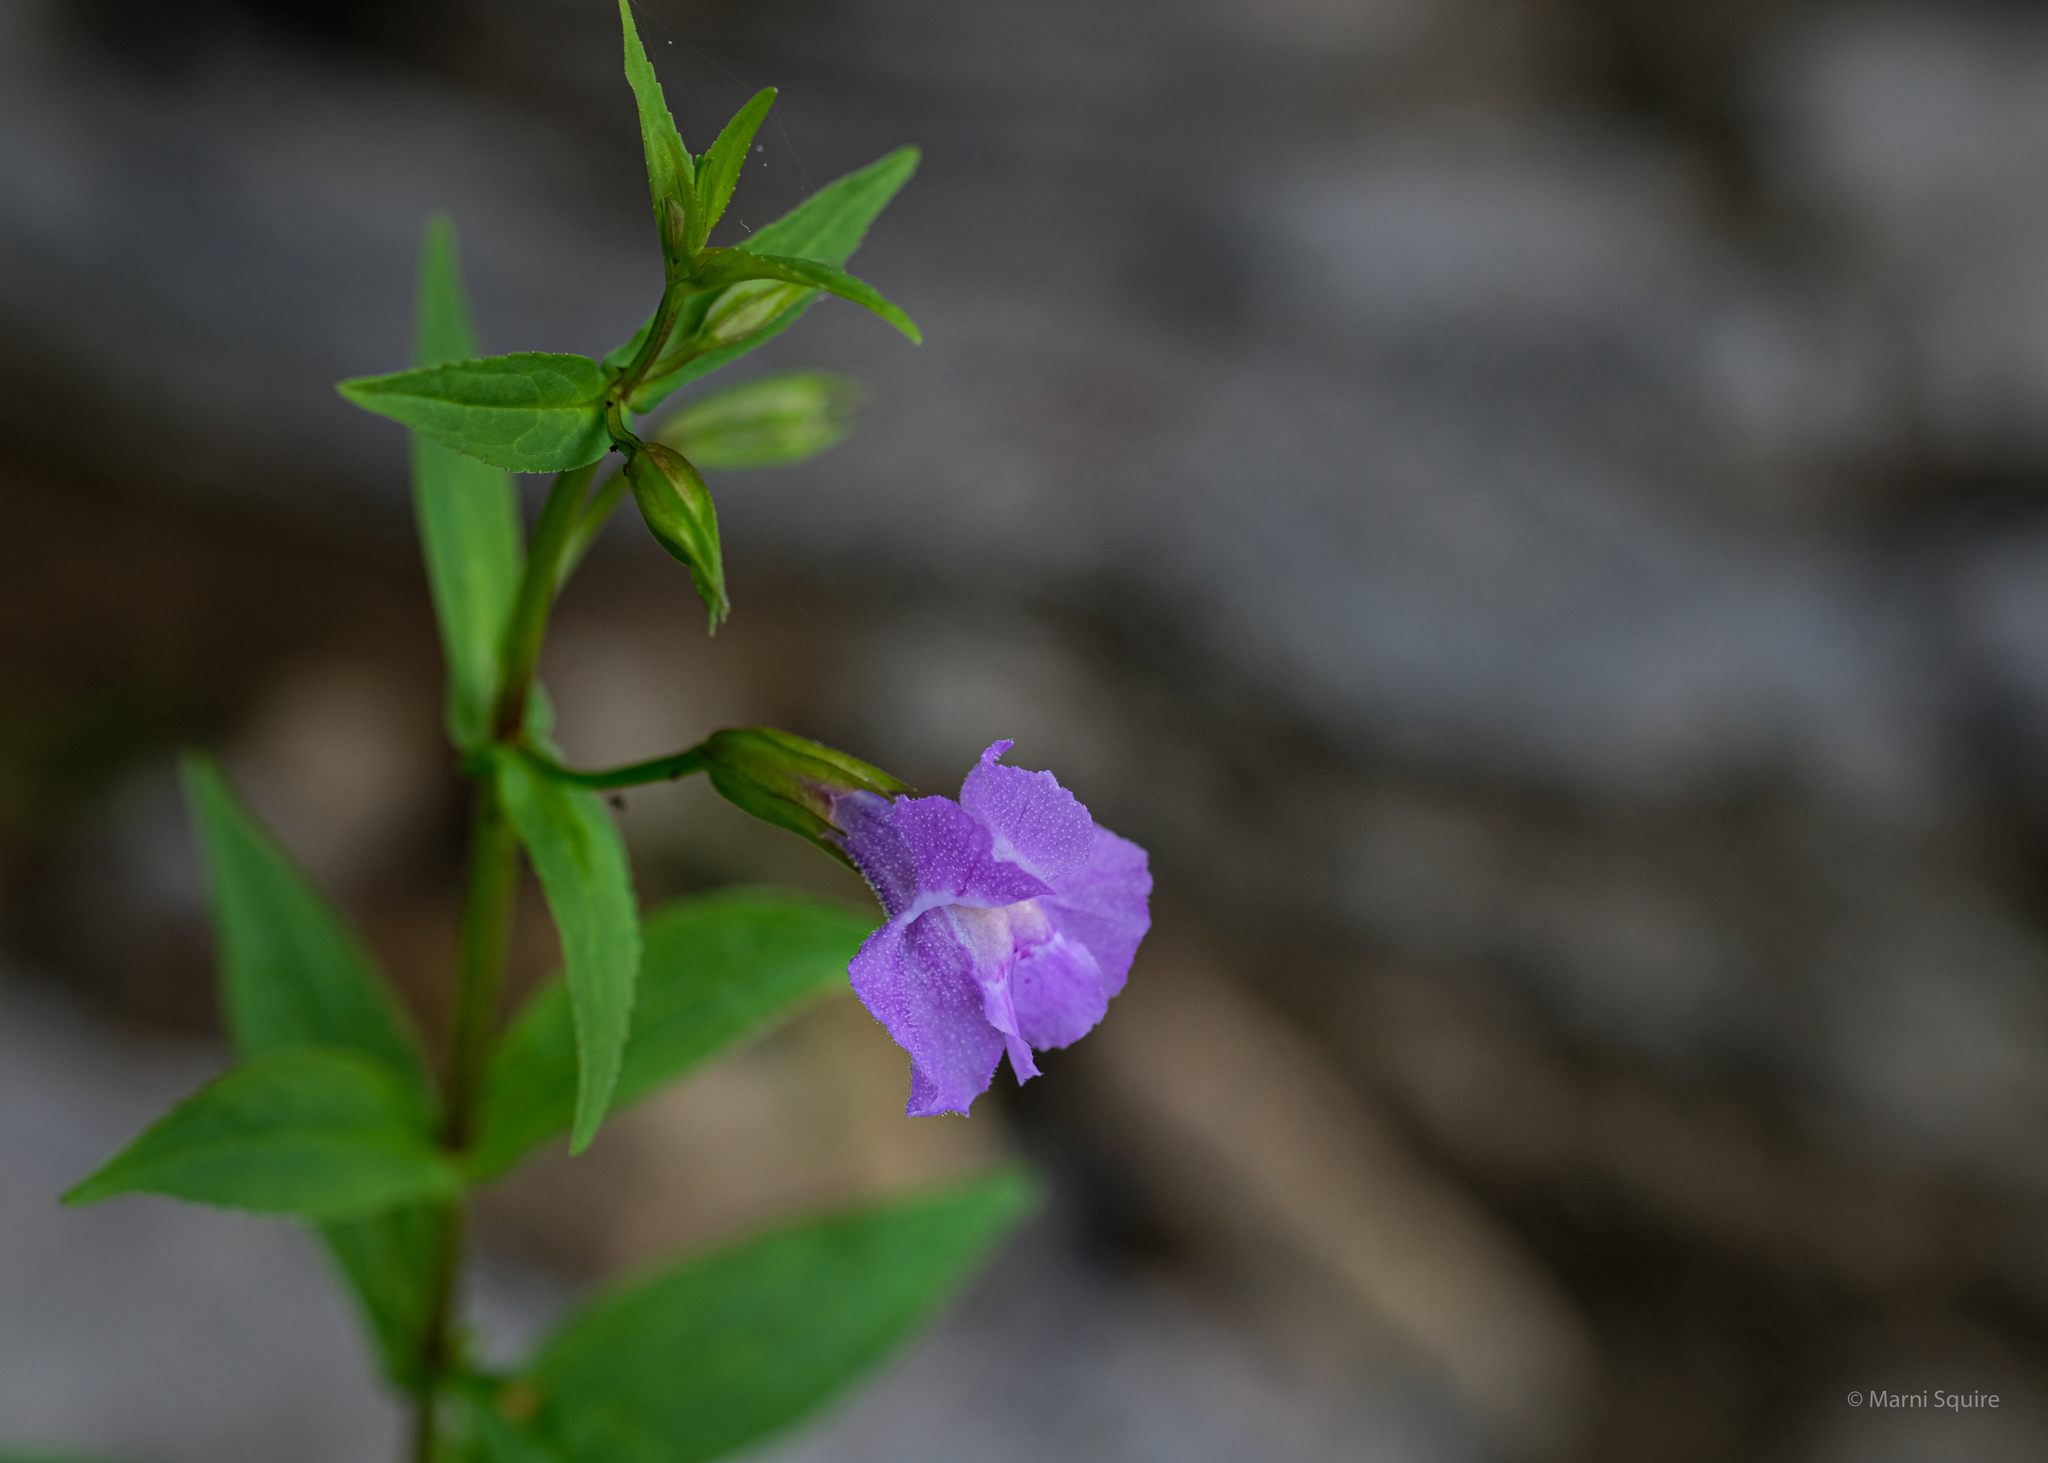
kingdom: Plantae
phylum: Tracheophyta
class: Magnoliopsida
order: Lamiales
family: Phrymaceae
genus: Mimulus
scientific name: Mimulus ringens
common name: Allegheny monkeyflower
